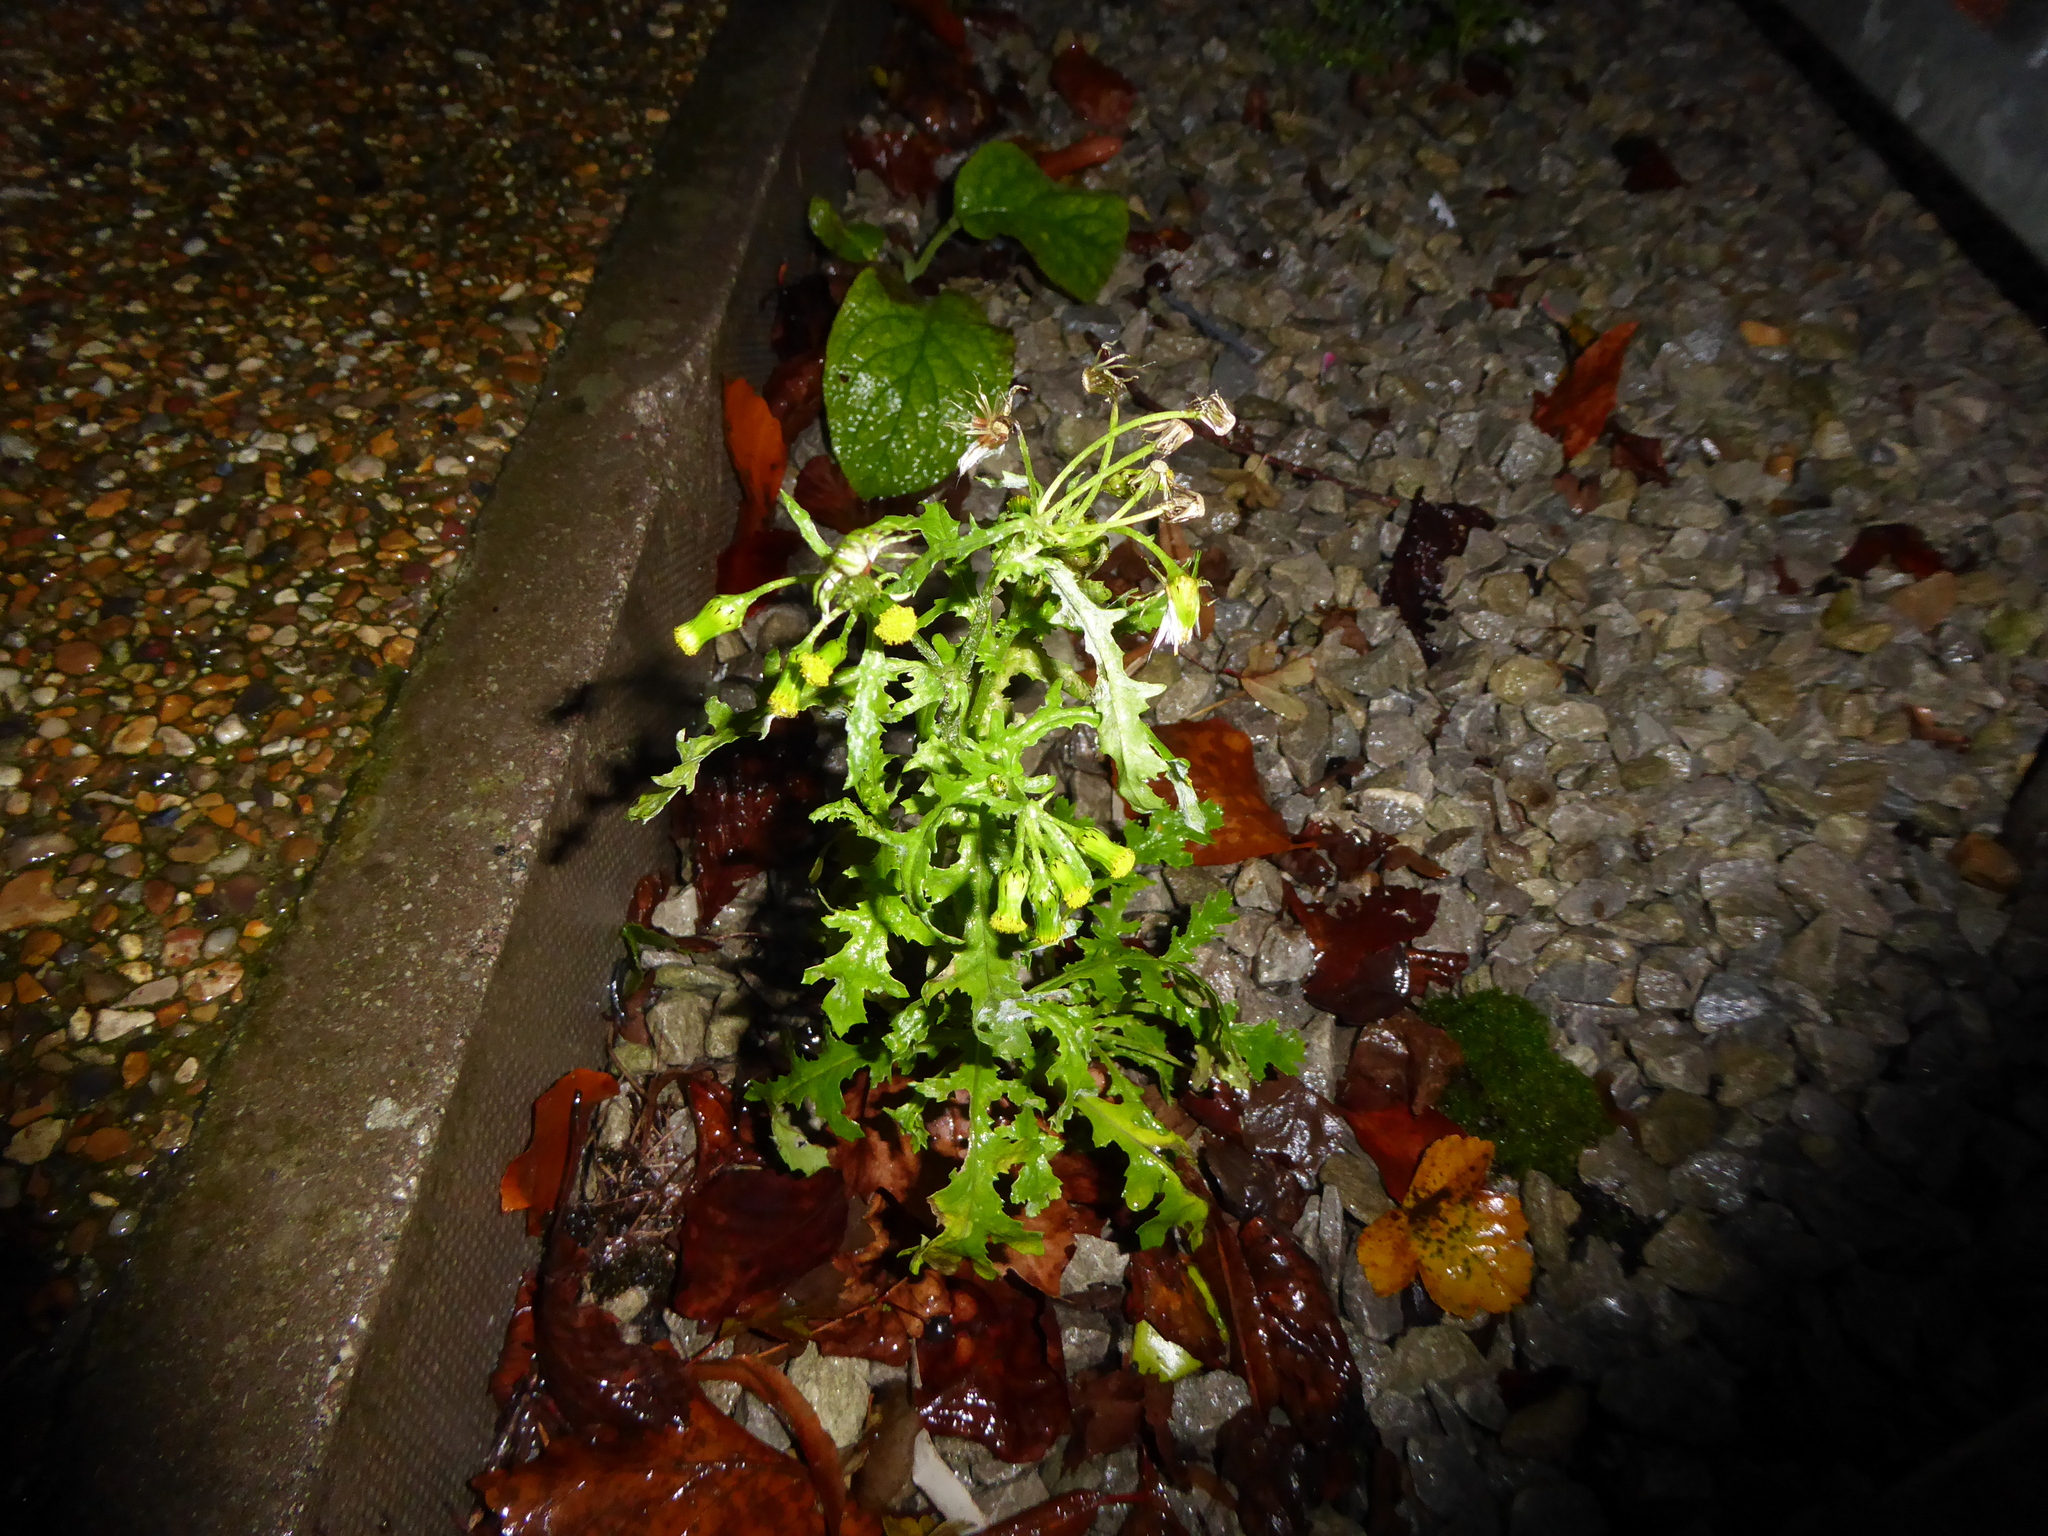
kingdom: Plantae
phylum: Tracheophyta
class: Magnoliopsida
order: Asterales
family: Asteraceae
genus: Senecio
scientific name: Senecio vulgaris
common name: Old-man-in-the-spring
